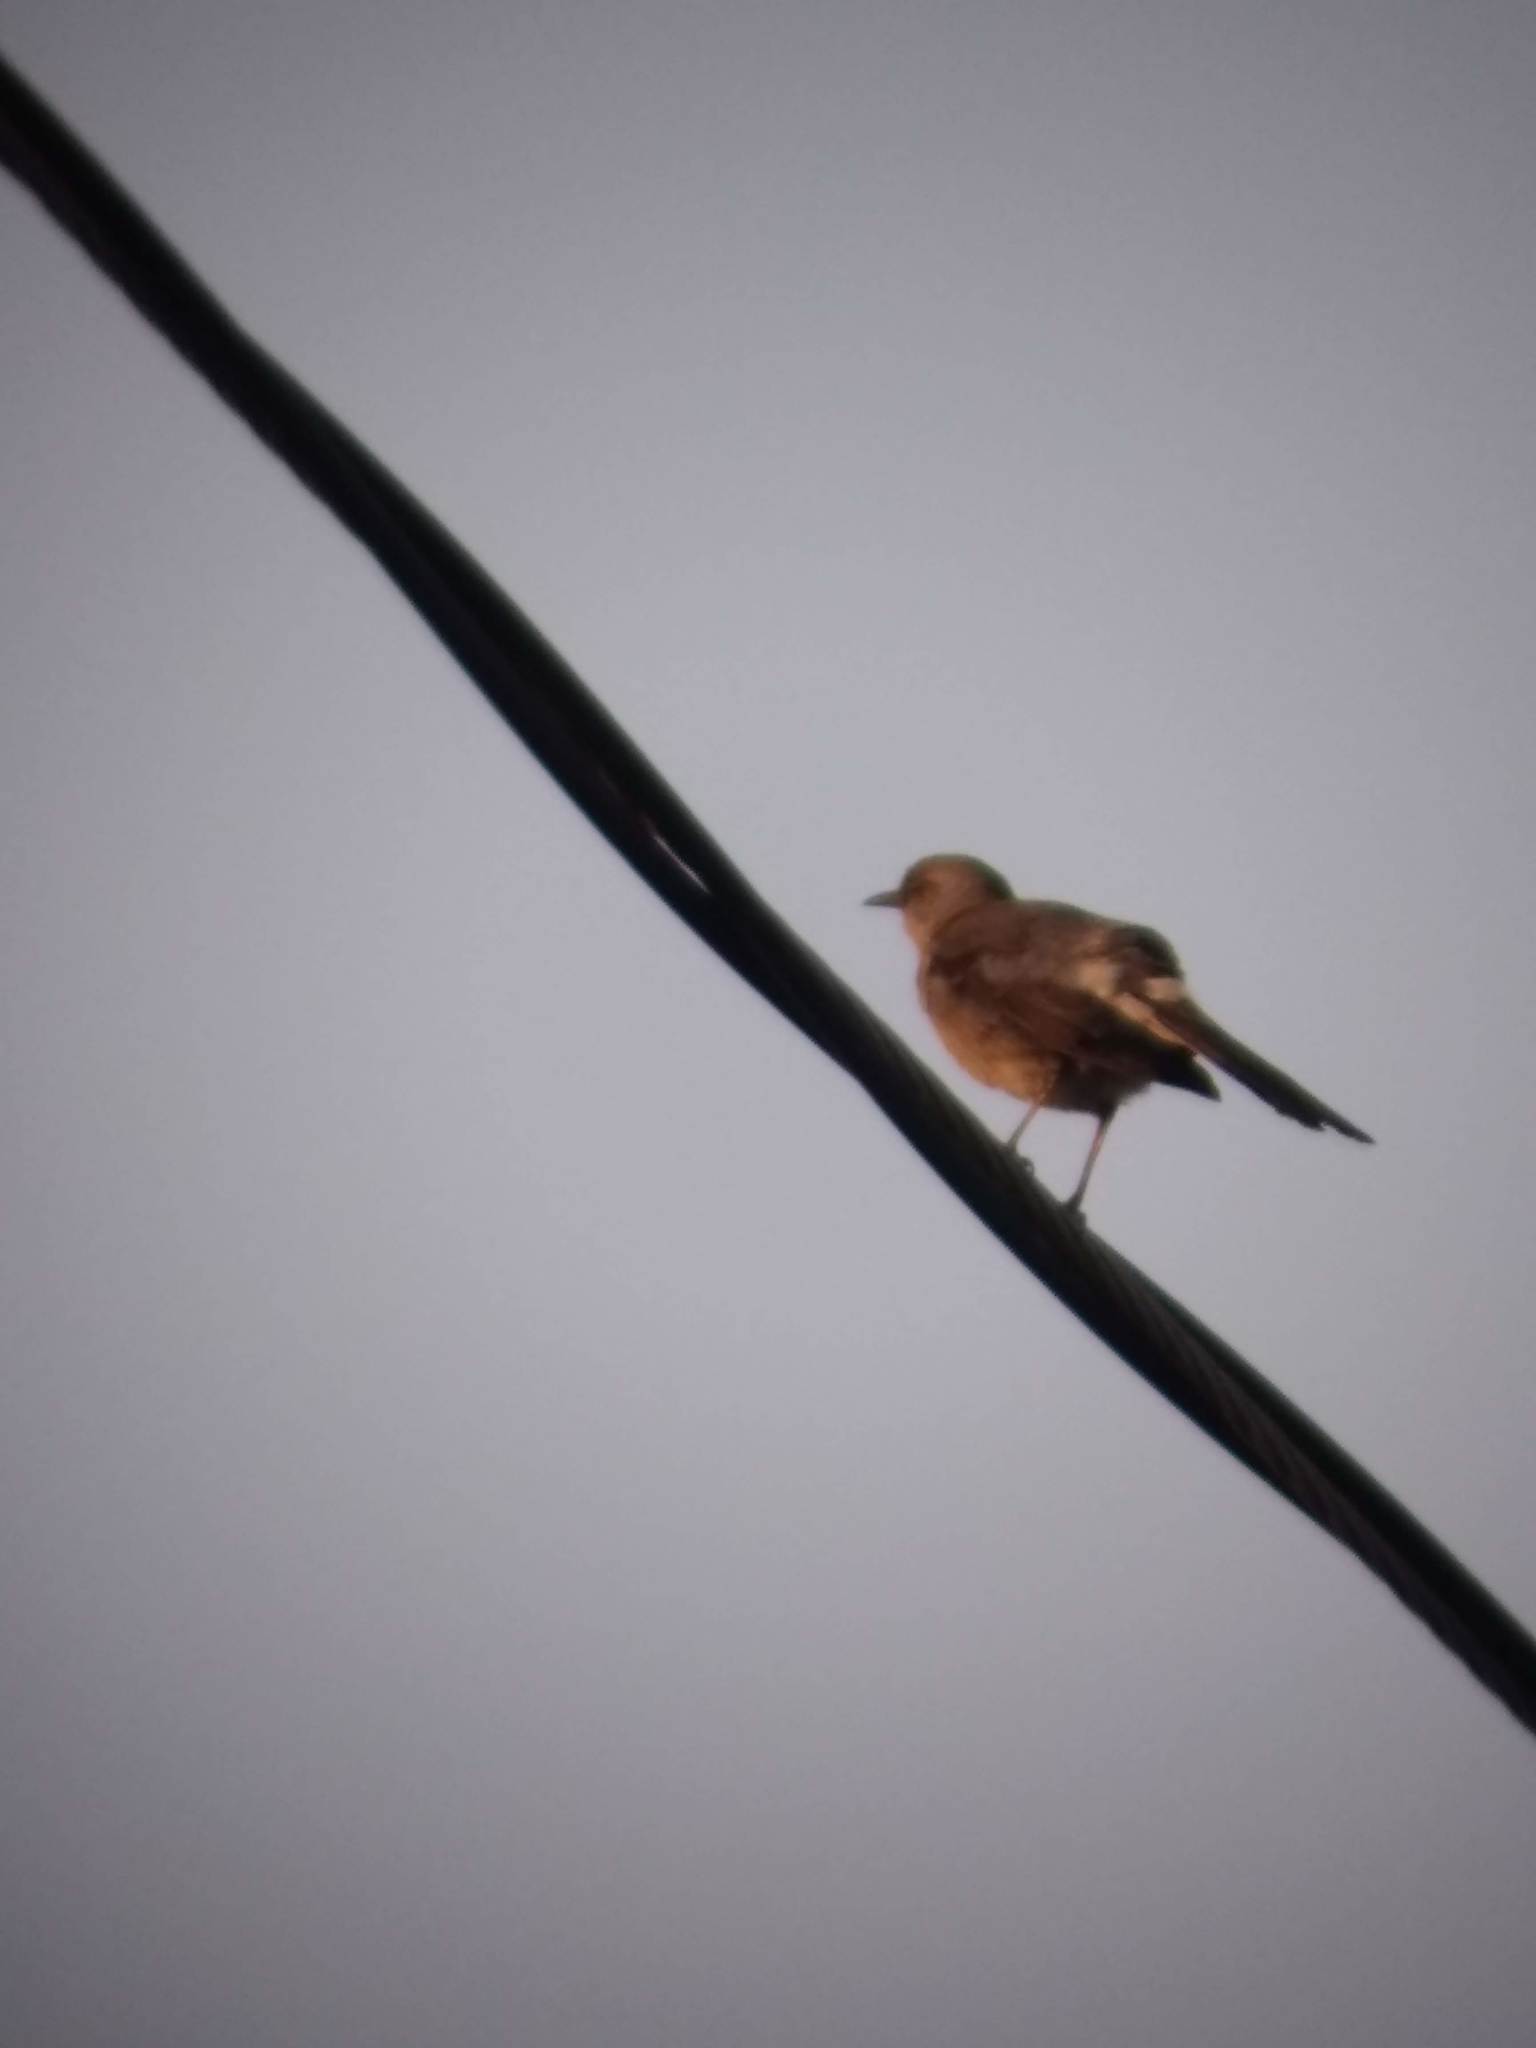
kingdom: Animalia
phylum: Chordata
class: Aves
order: Passeriformes
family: Mimidae
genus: Mimus
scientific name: Mimus polyglottos
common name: Northern mockingbird
